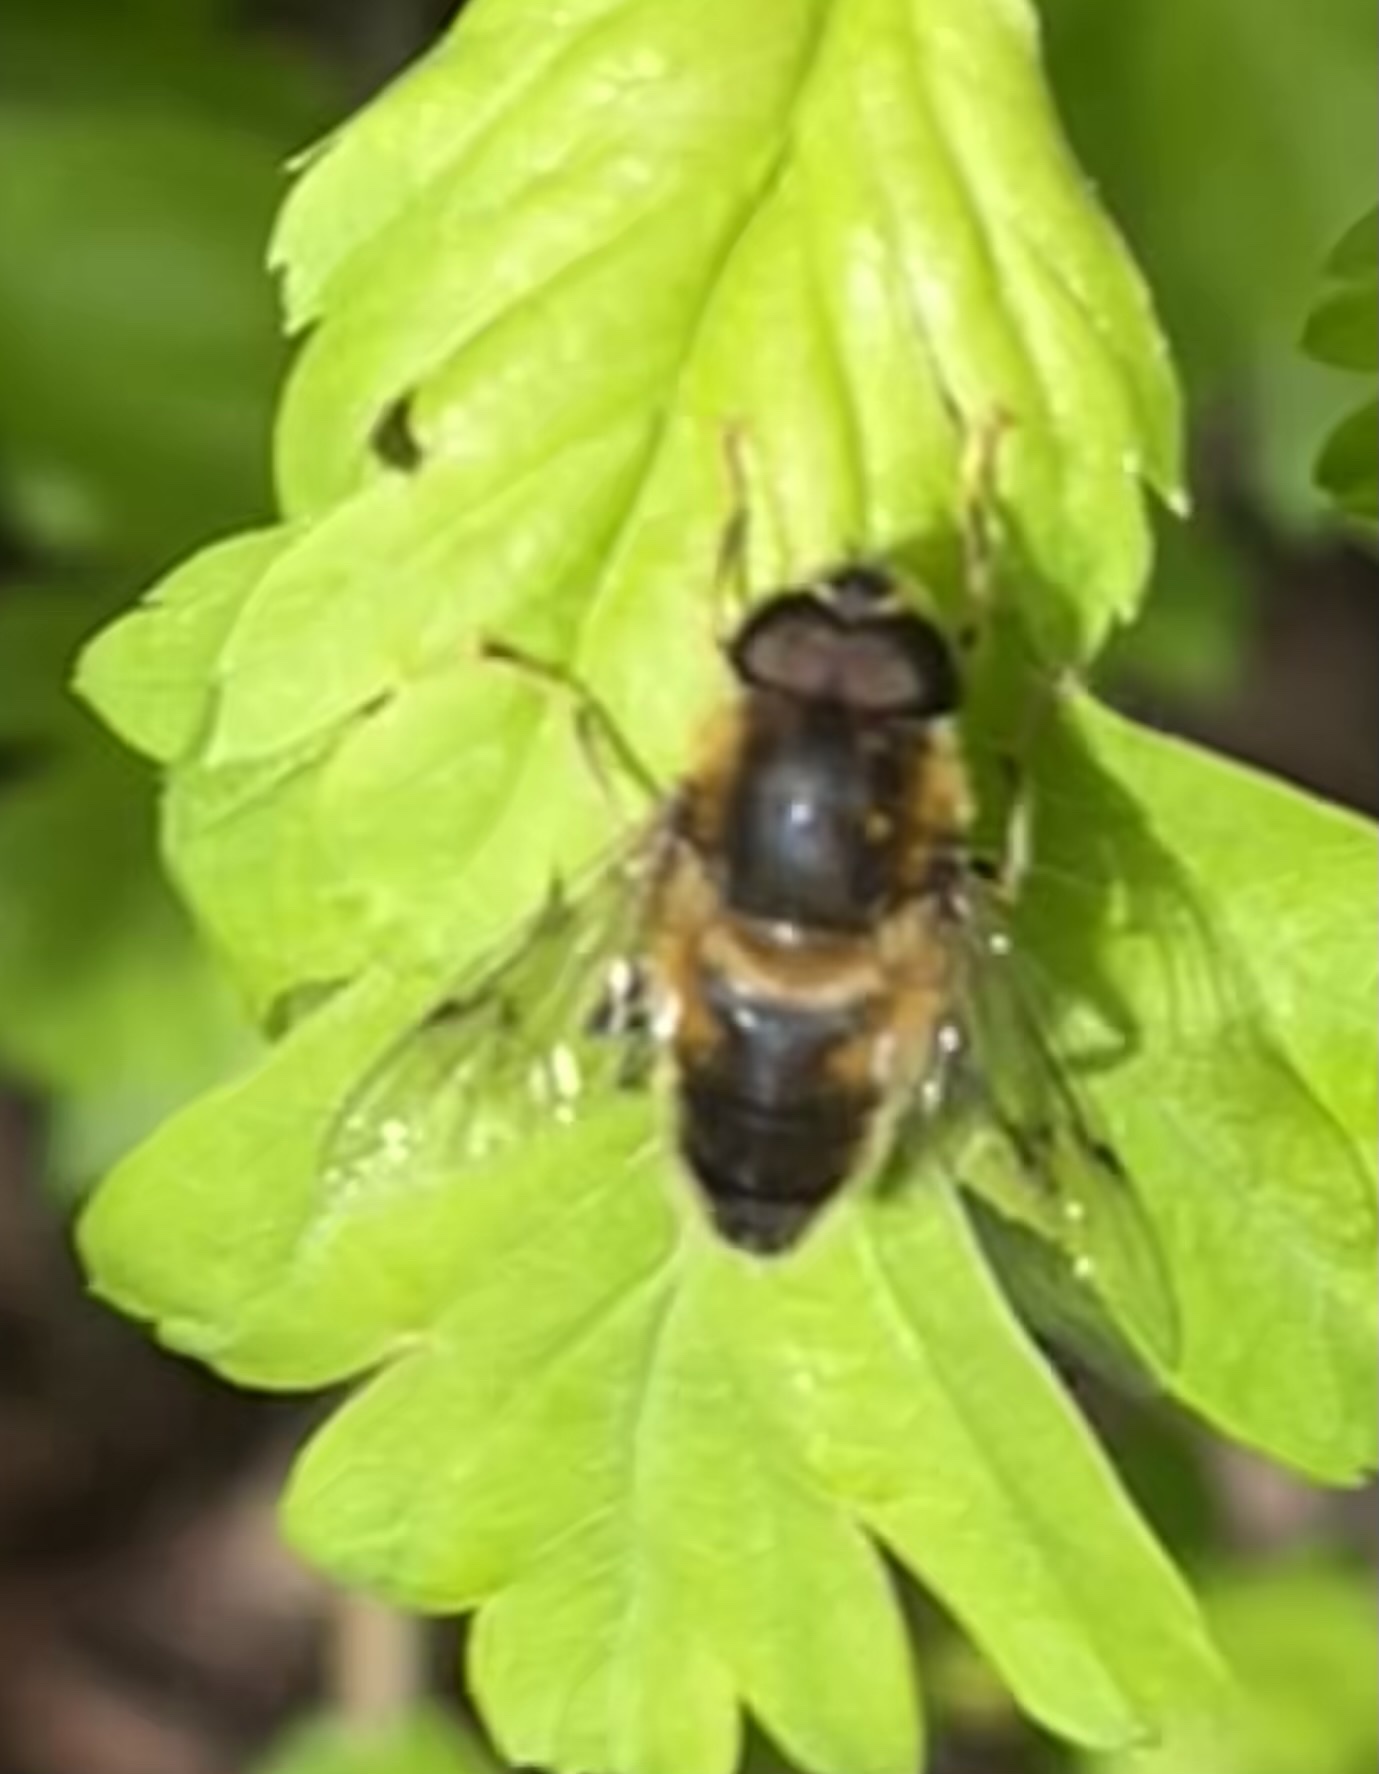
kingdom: Animalia
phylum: Arthropoda
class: Insecta
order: Diptera
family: Syrphidae
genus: Eristalis
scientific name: Eristalis pertinax
